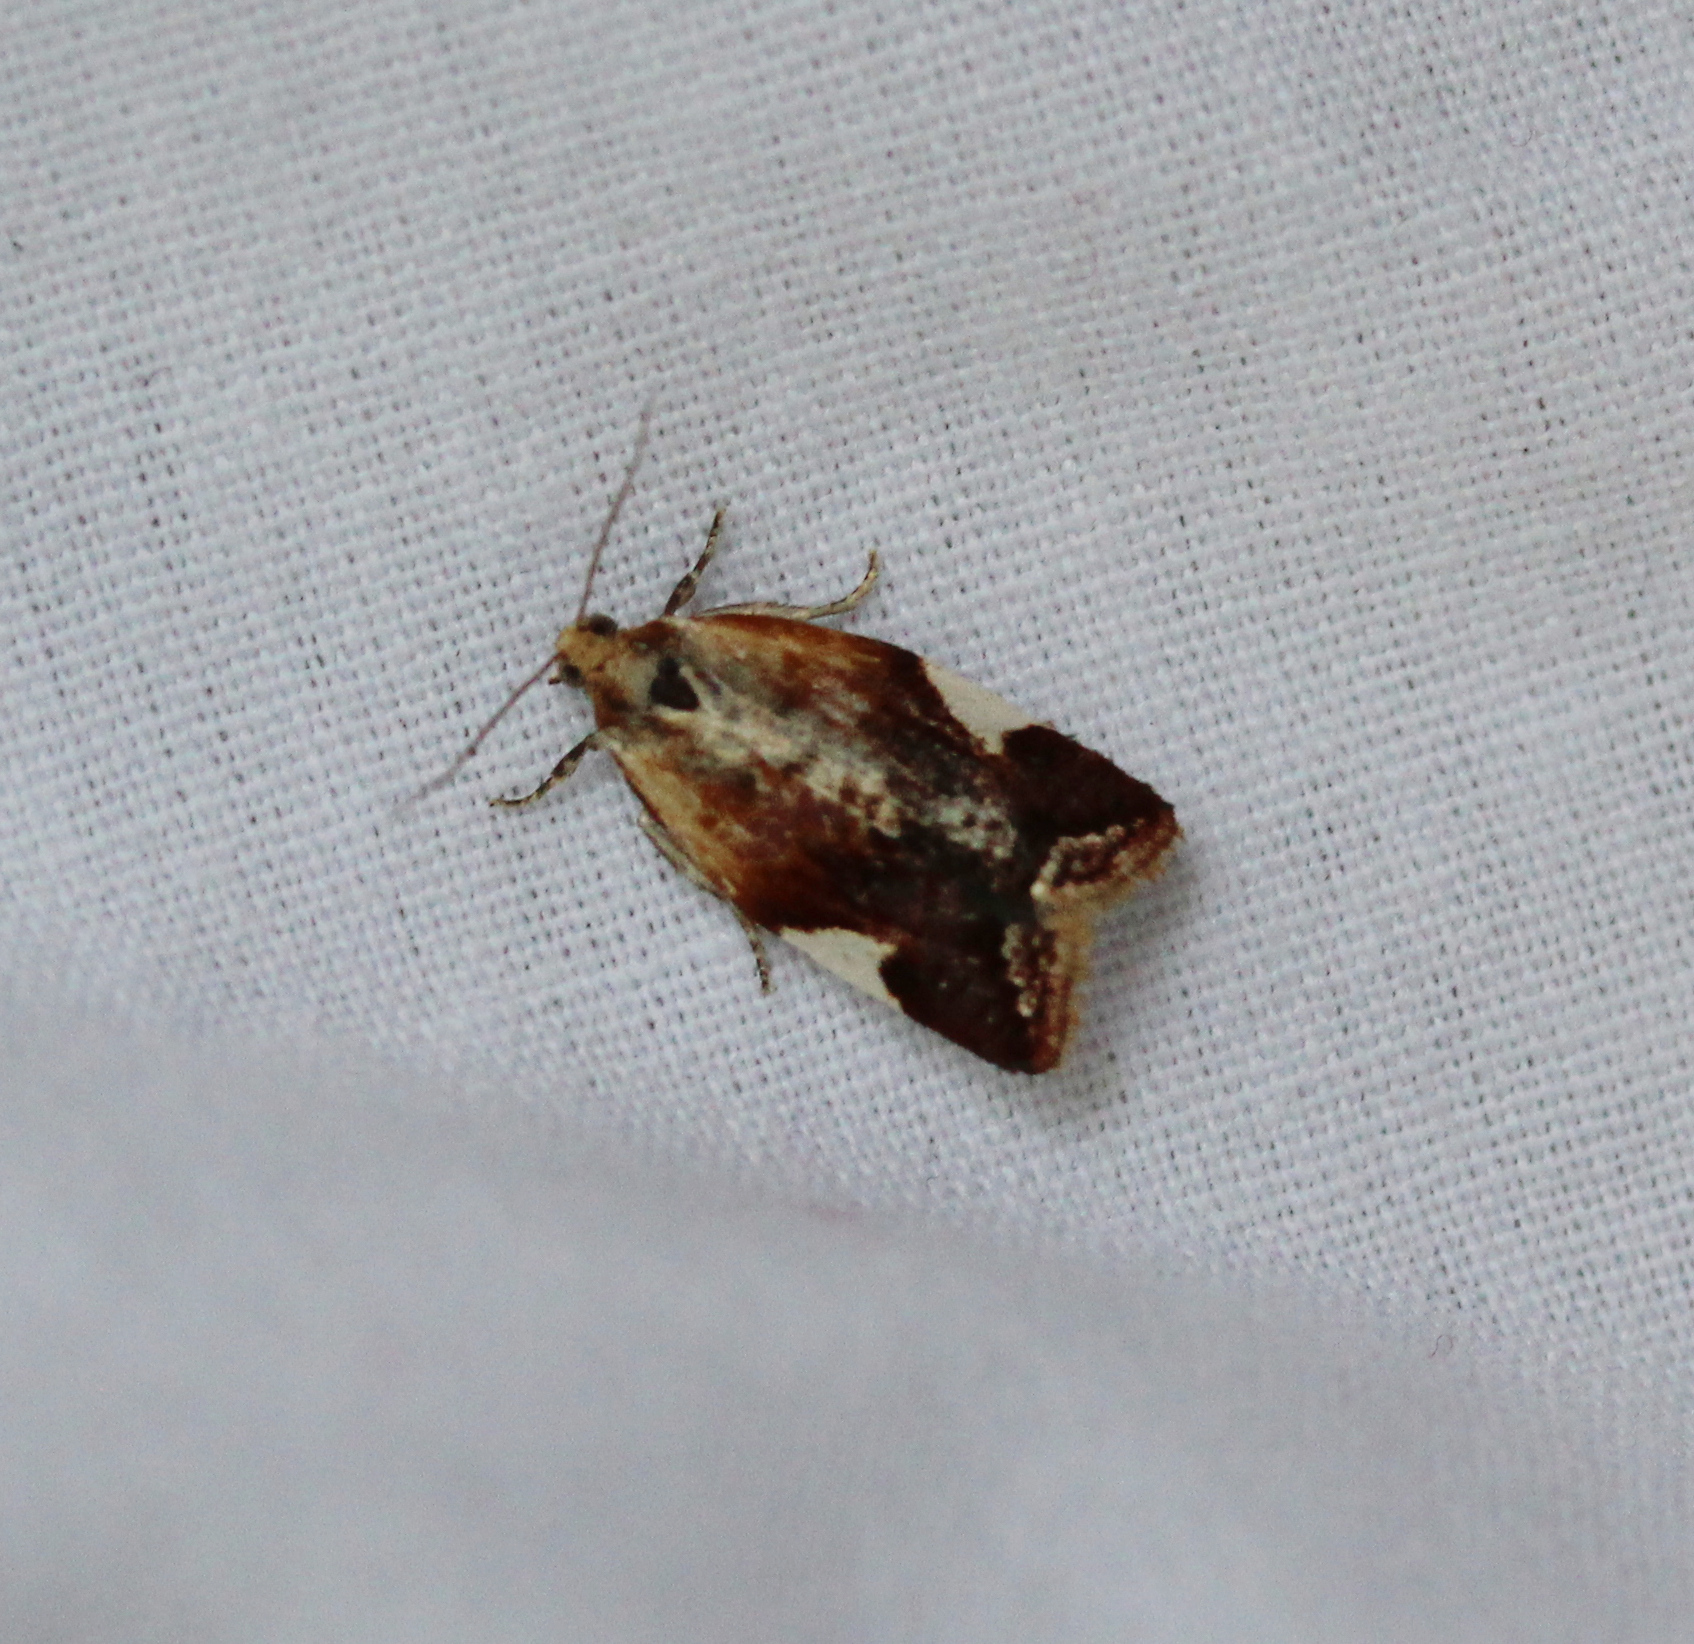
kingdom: Animalia
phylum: Arthropoda
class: Insecta
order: Lepidoptera
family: Tortricidae
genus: Clepsis
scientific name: Clepsis persicana
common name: White triangle tortrix
